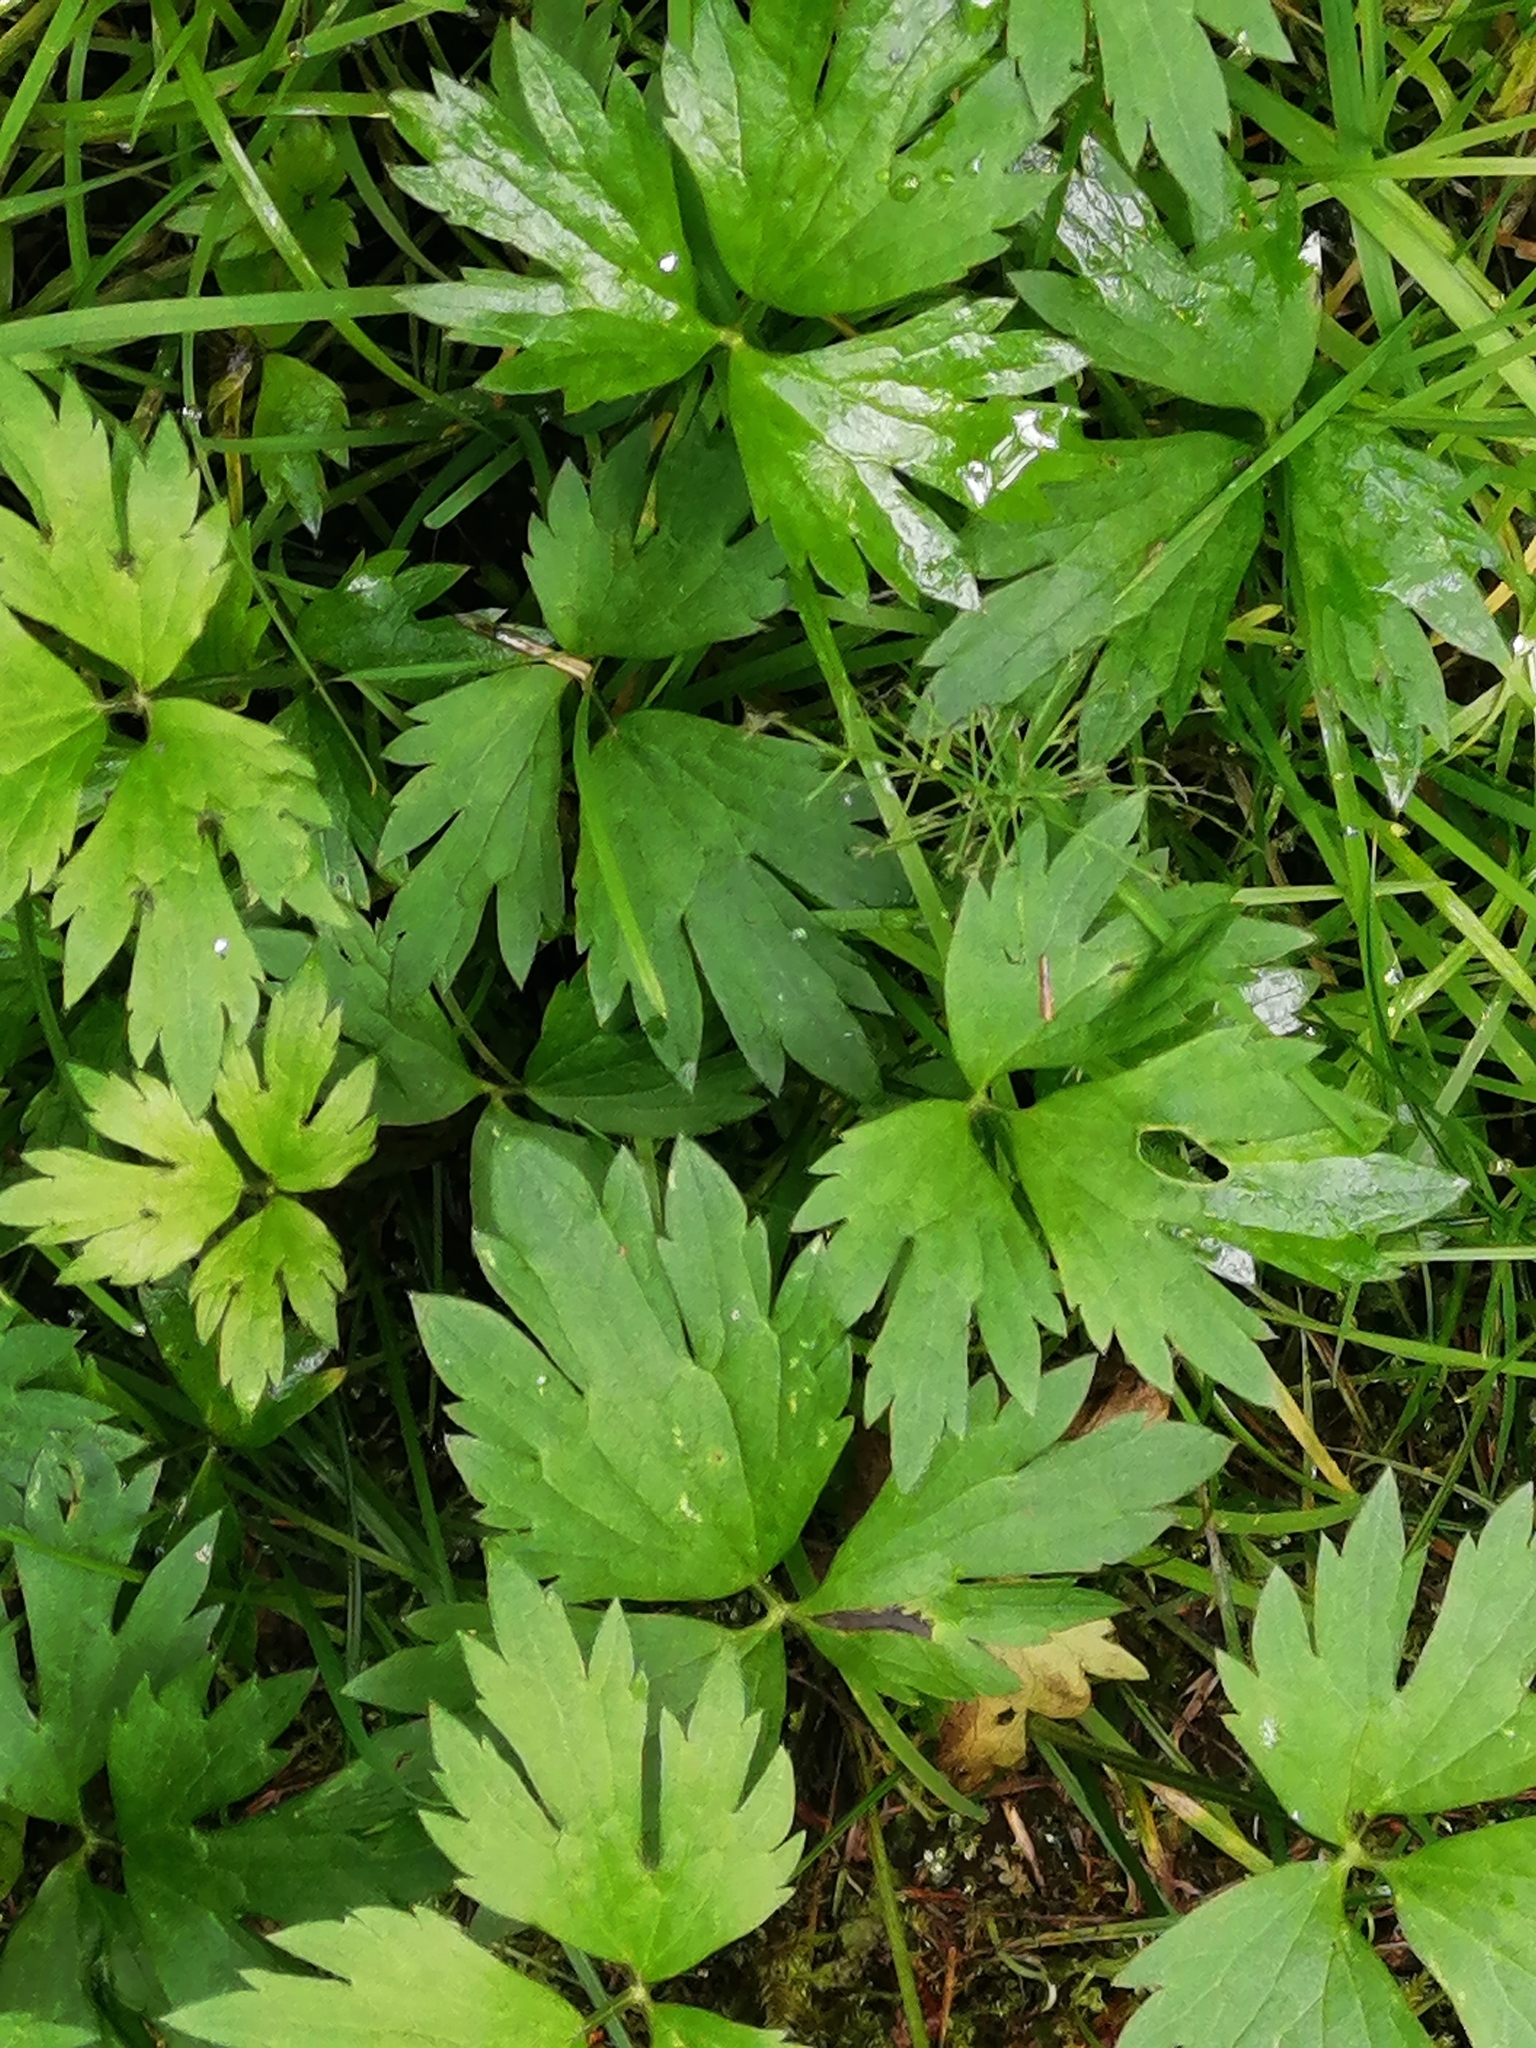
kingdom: Plantae
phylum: Tracheophyta
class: Magnoliopsida
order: Ranunculales
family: Ranunculaceae
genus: Ranunculus
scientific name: Ranunculus repens
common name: Creeping buttercup
